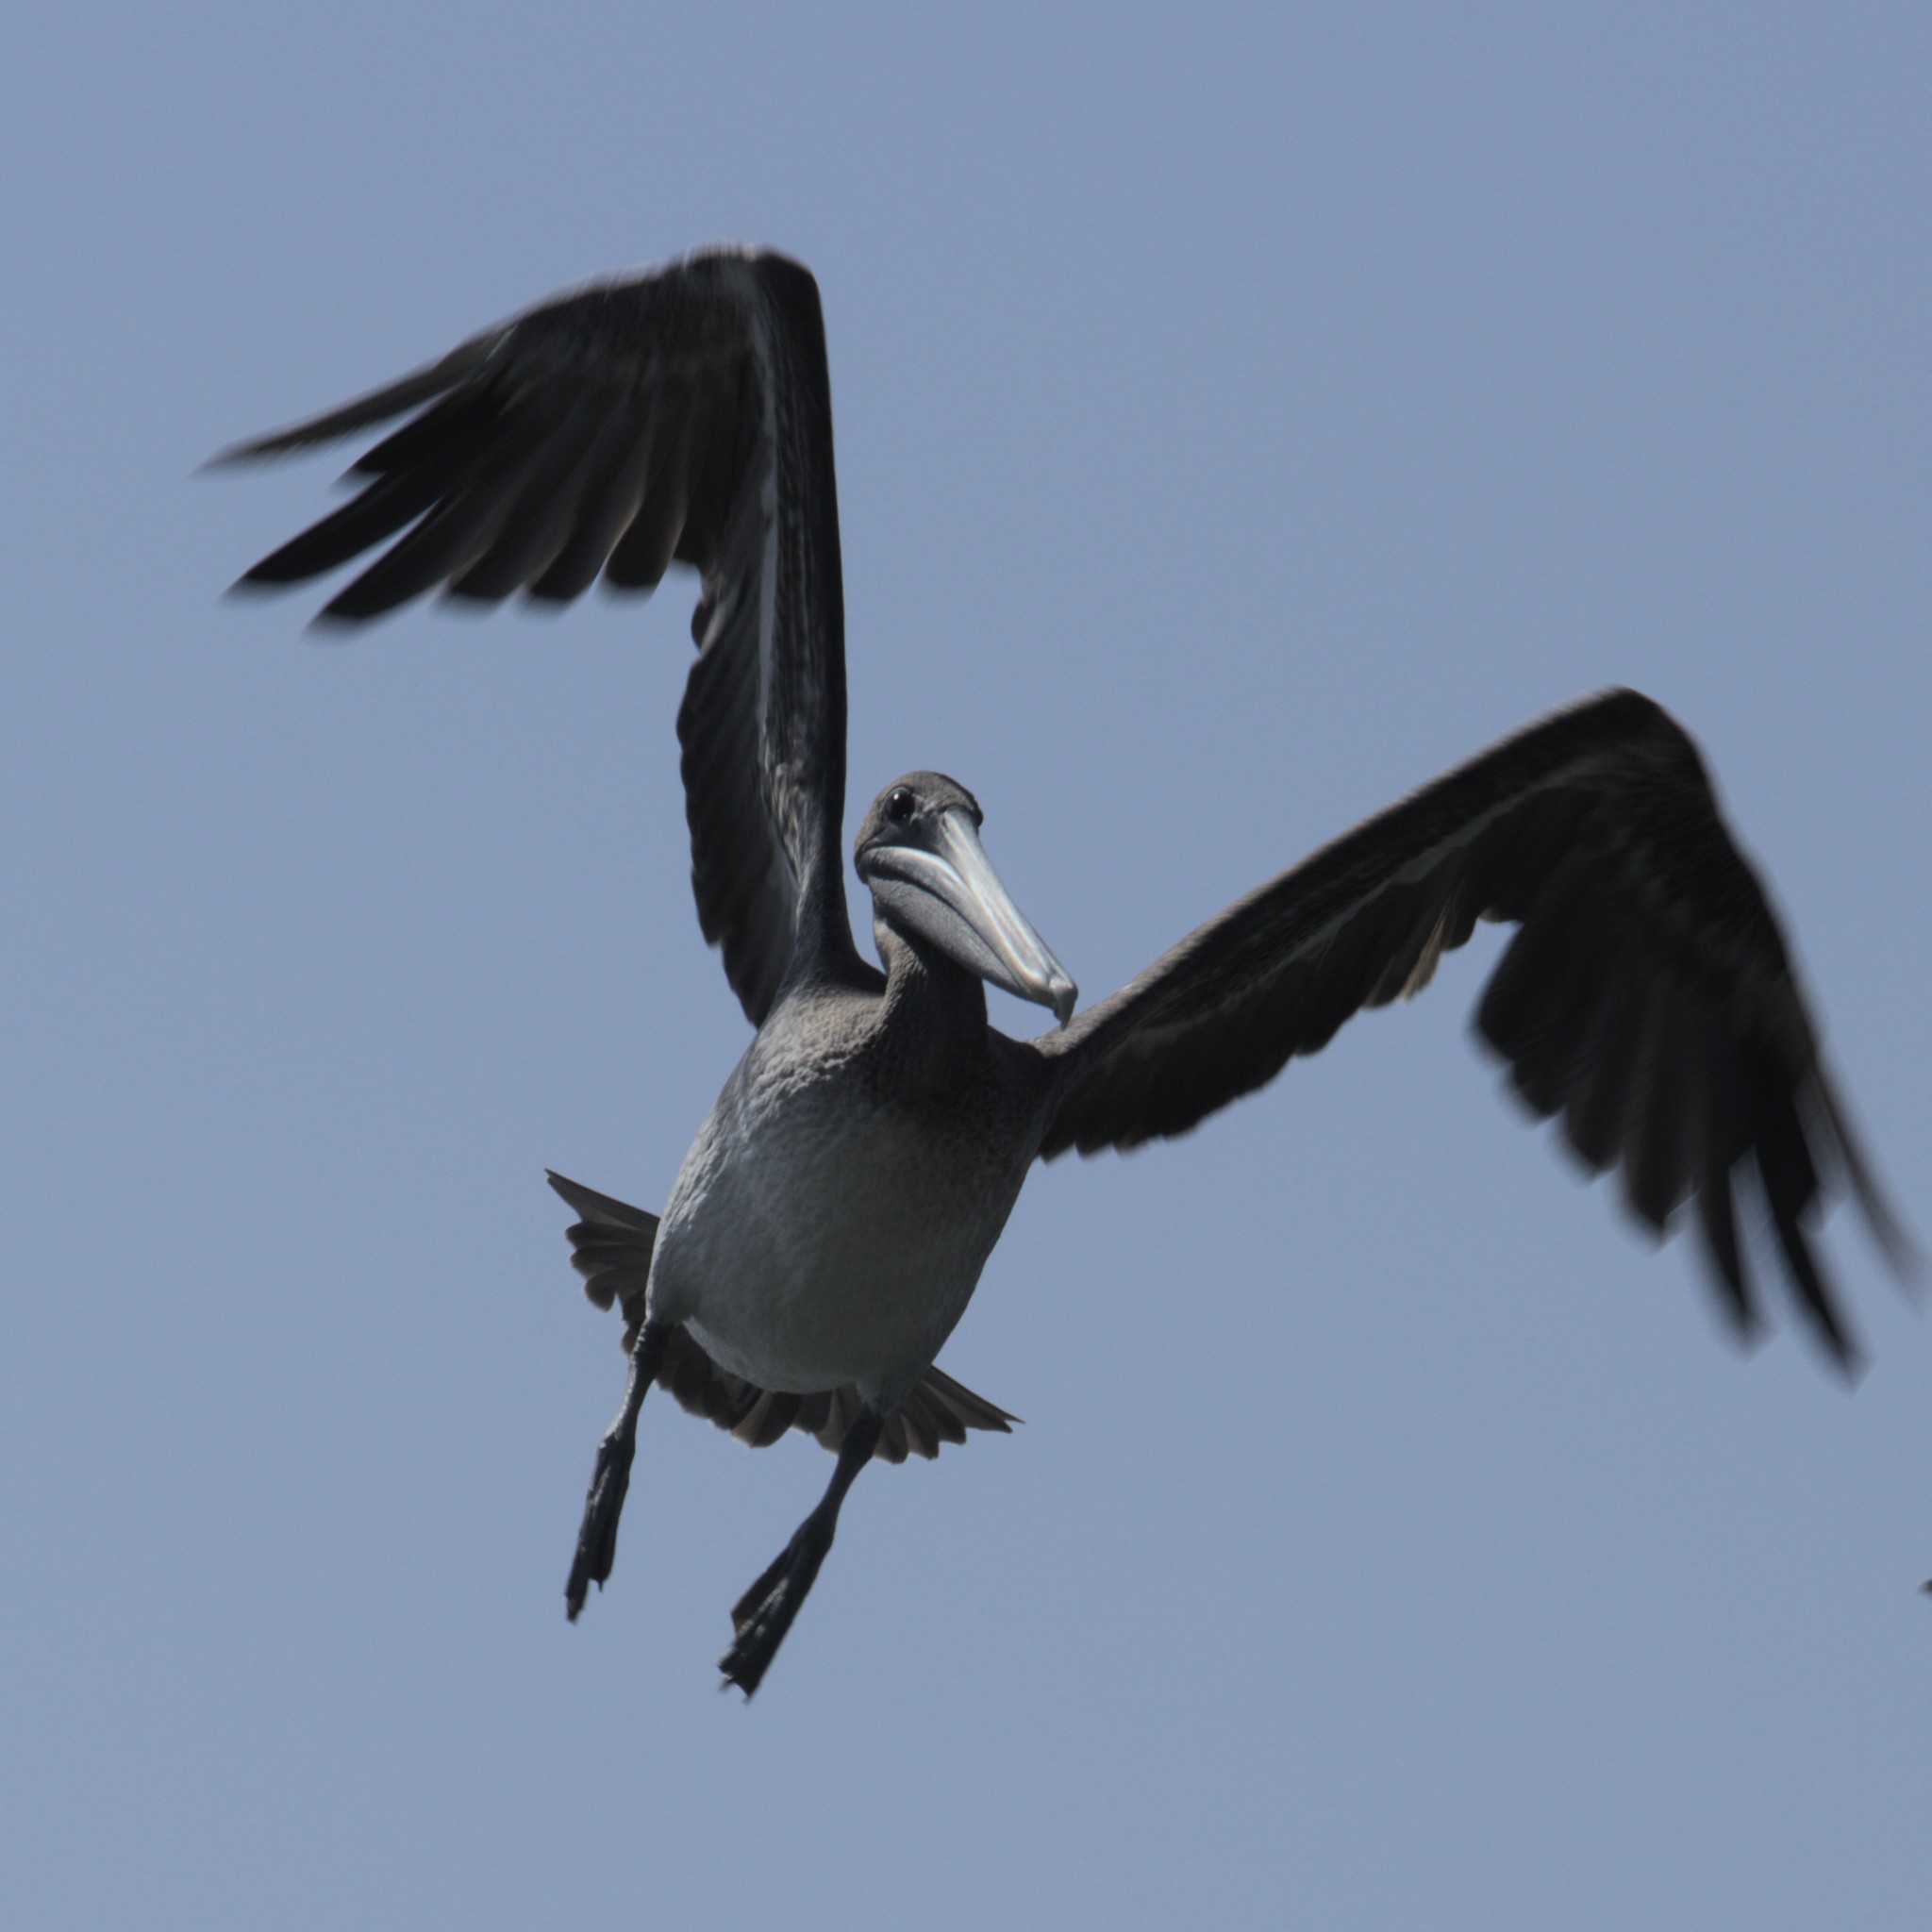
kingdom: Animalia
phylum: Chordata
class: Aves
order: Pelecaniformes
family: Pelecanidae
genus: Pelecanus
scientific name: Pelecanus occidentalis
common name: Brown pelican
